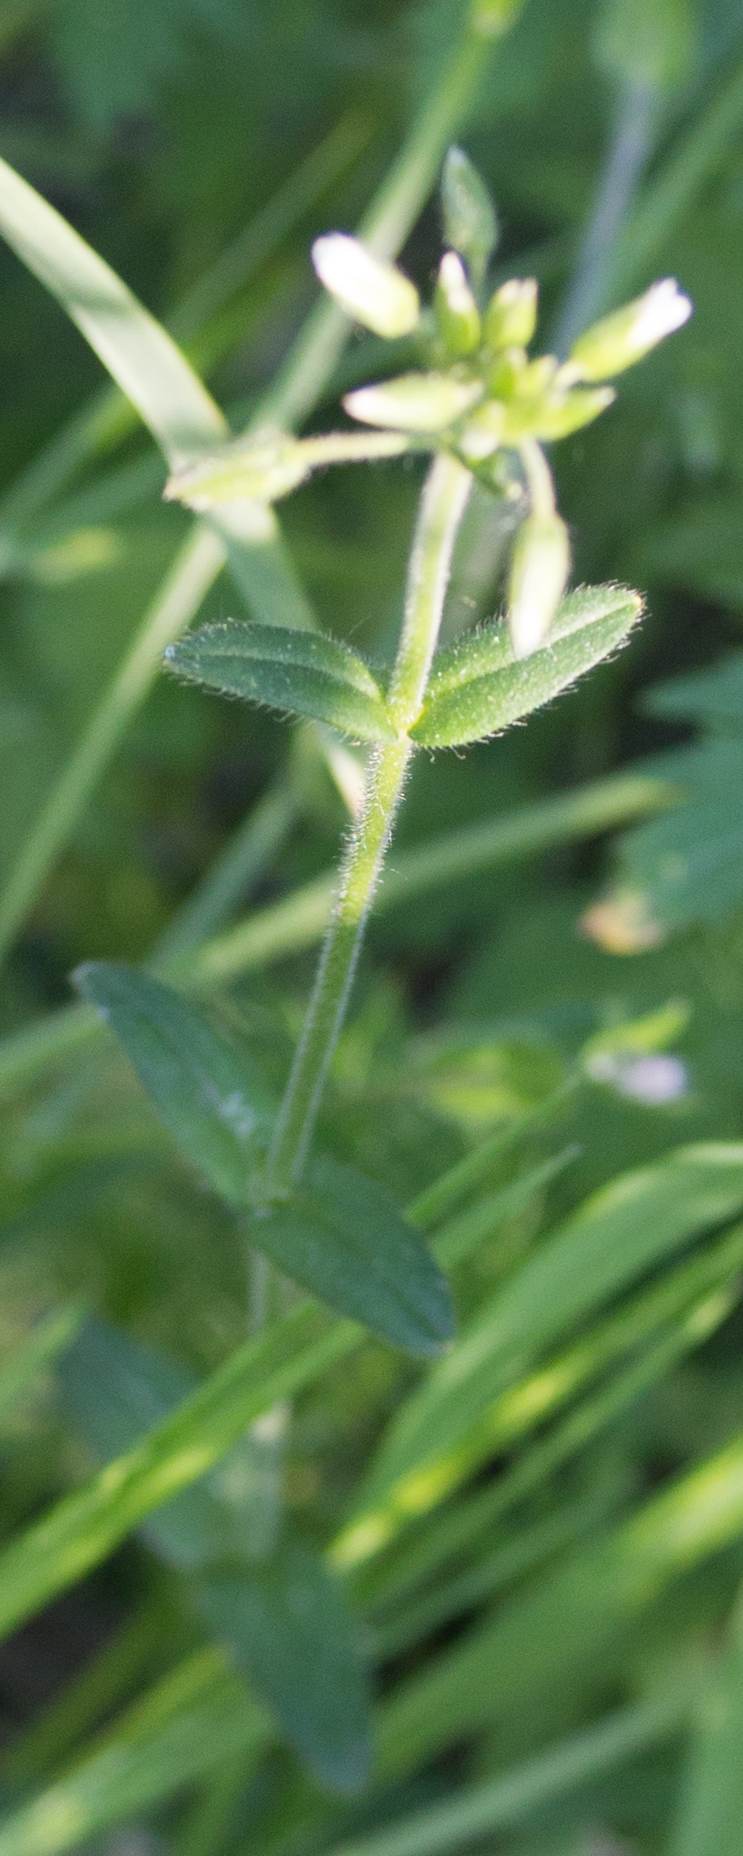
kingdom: Plantae
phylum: Tracheophyta
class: Magnoliopsida
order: Caryophyllales
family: Caryophyllaceae
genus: Cerastium
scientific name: Cerastium holosteoides
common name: Big chickweed
